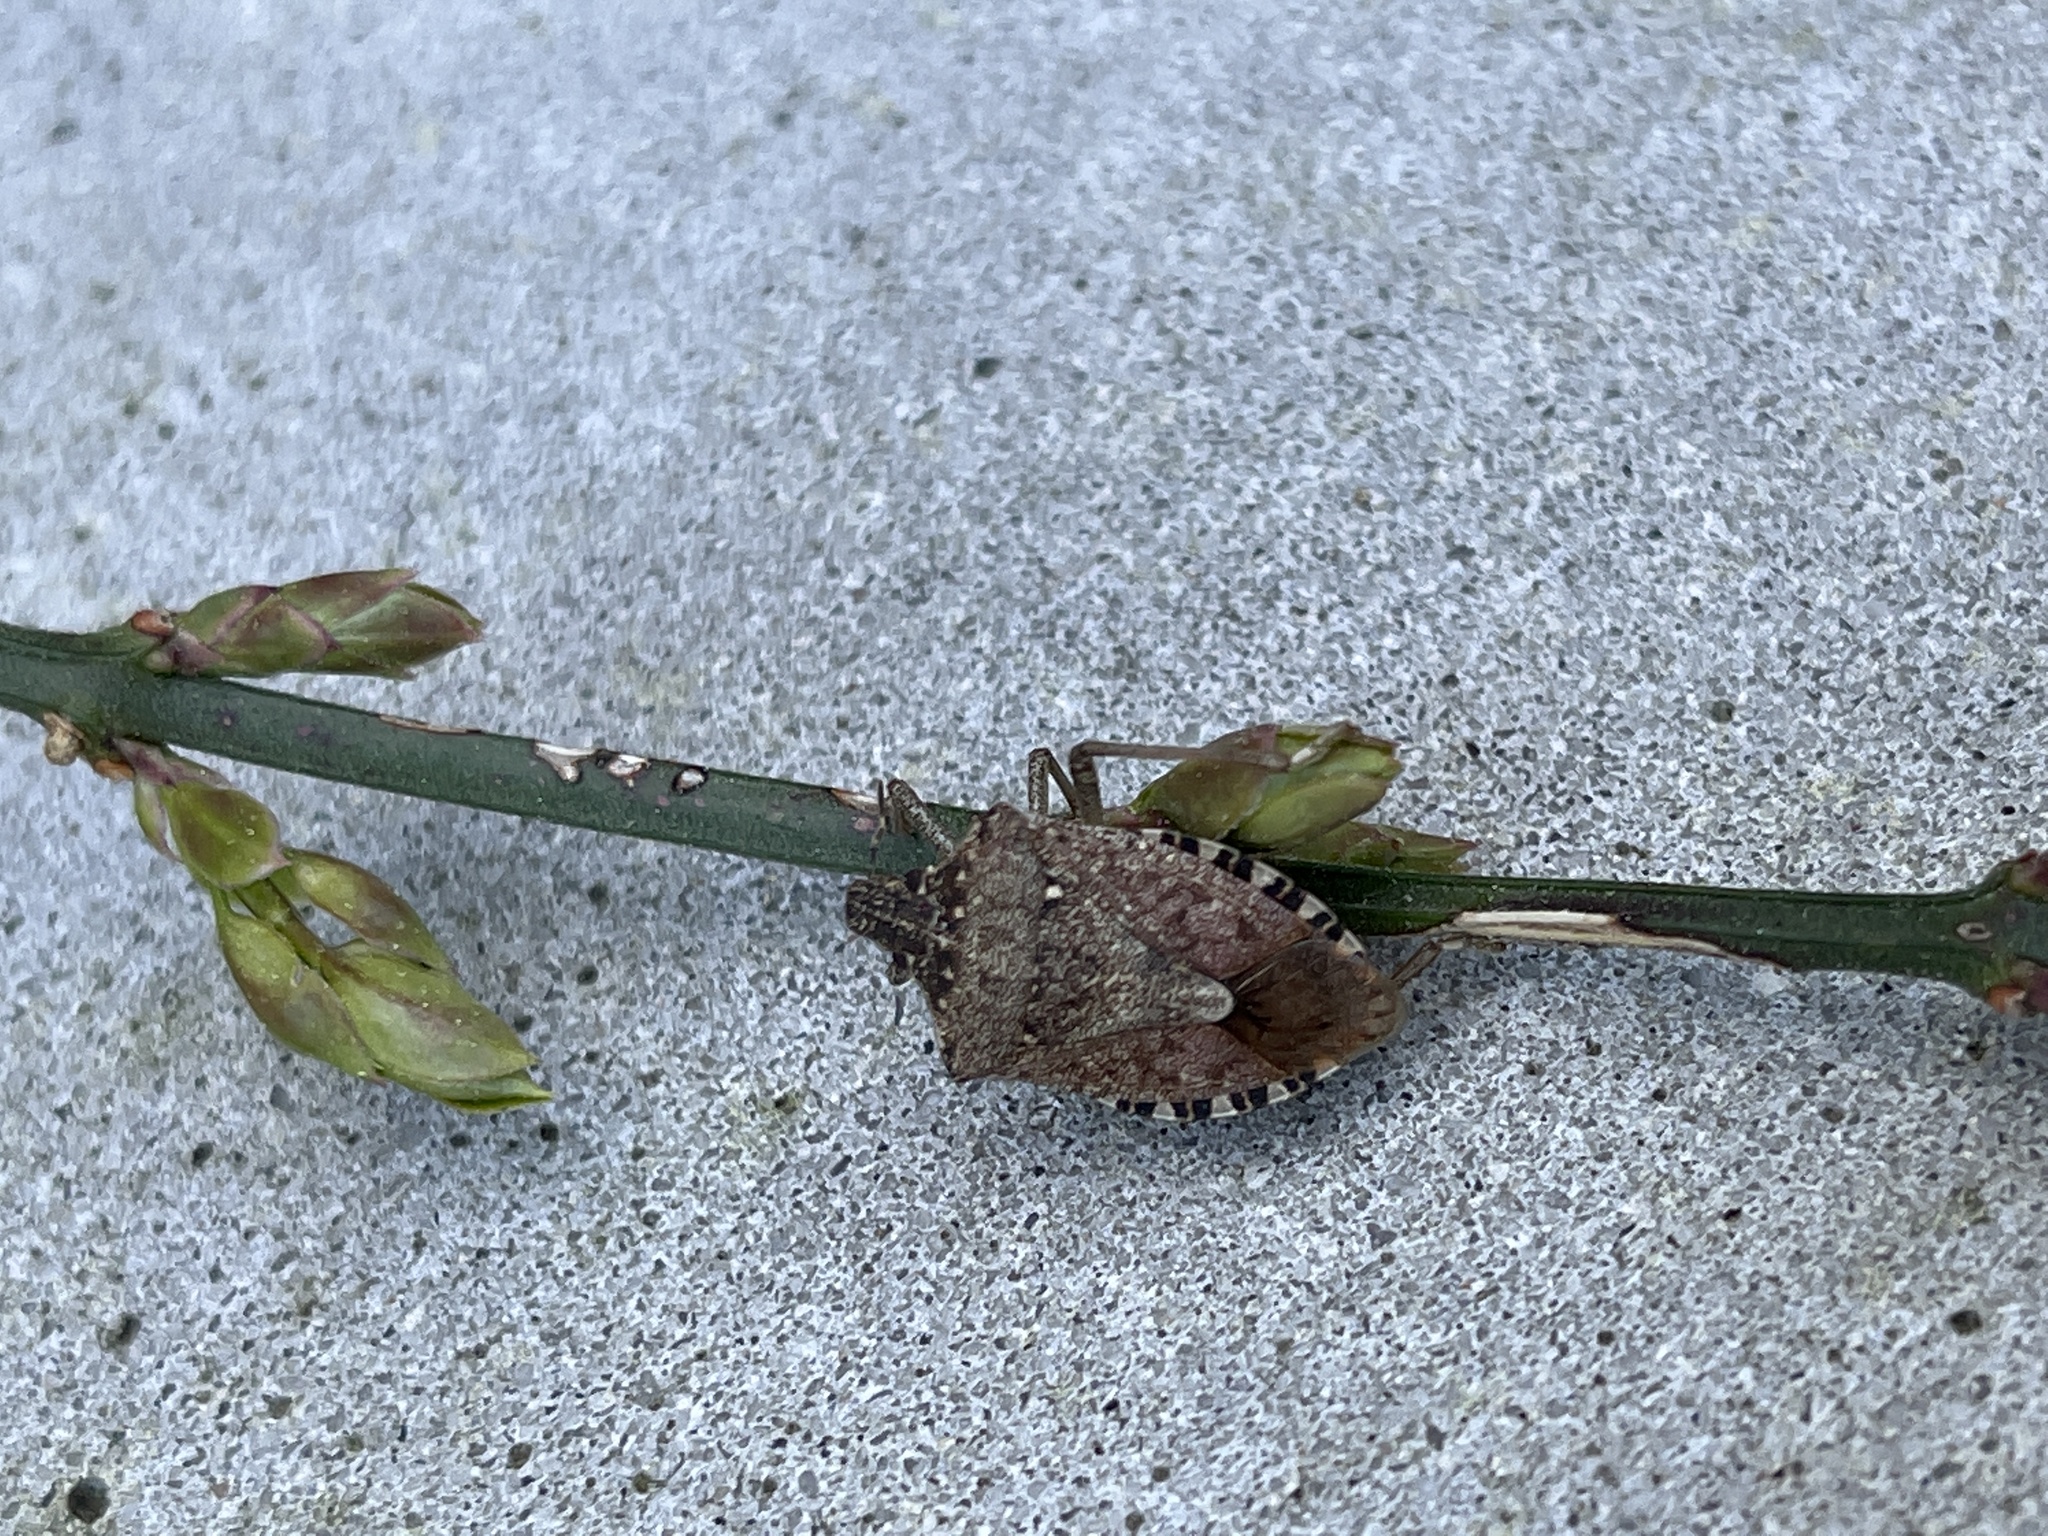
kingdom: Animalia
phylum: Arthropoda
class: Insecta
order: Hemiptera
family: Pentatomidae
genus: Halyomorpha
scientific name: Halyomorpha halys
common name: Brown marmorated stink bug
